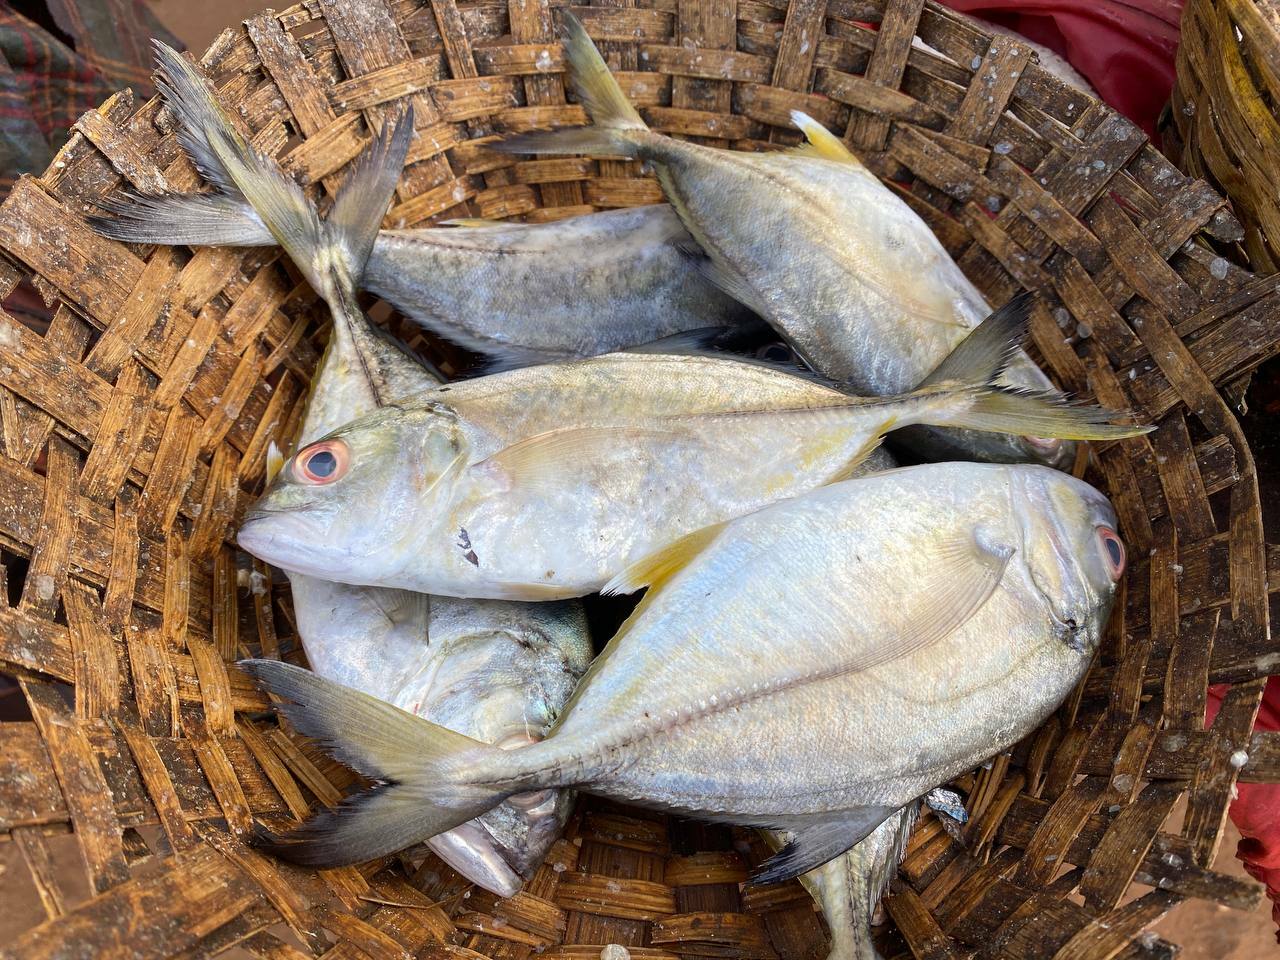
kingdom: Animalia
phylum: Chordata
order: Perciformes
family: Carangidae
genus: Caranx
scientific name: Caranx sexfasciatus
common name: Bigeye trevally
